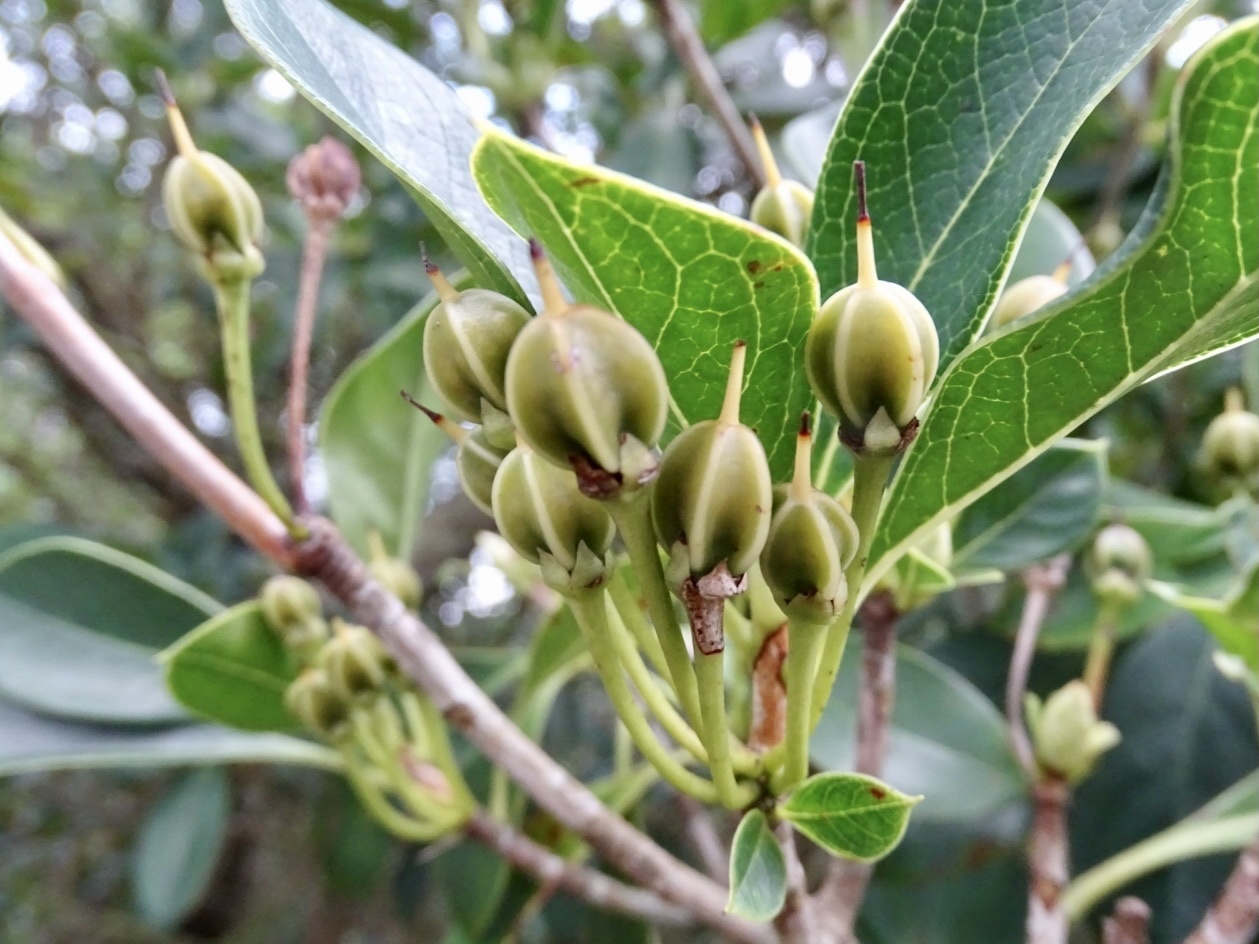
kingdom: Plantae
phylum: Tracheophyta
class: Magnoliopsida
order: Ericales
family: Ericaceae
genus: Enkianthus
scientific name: Enkianthus quinqueflorus
